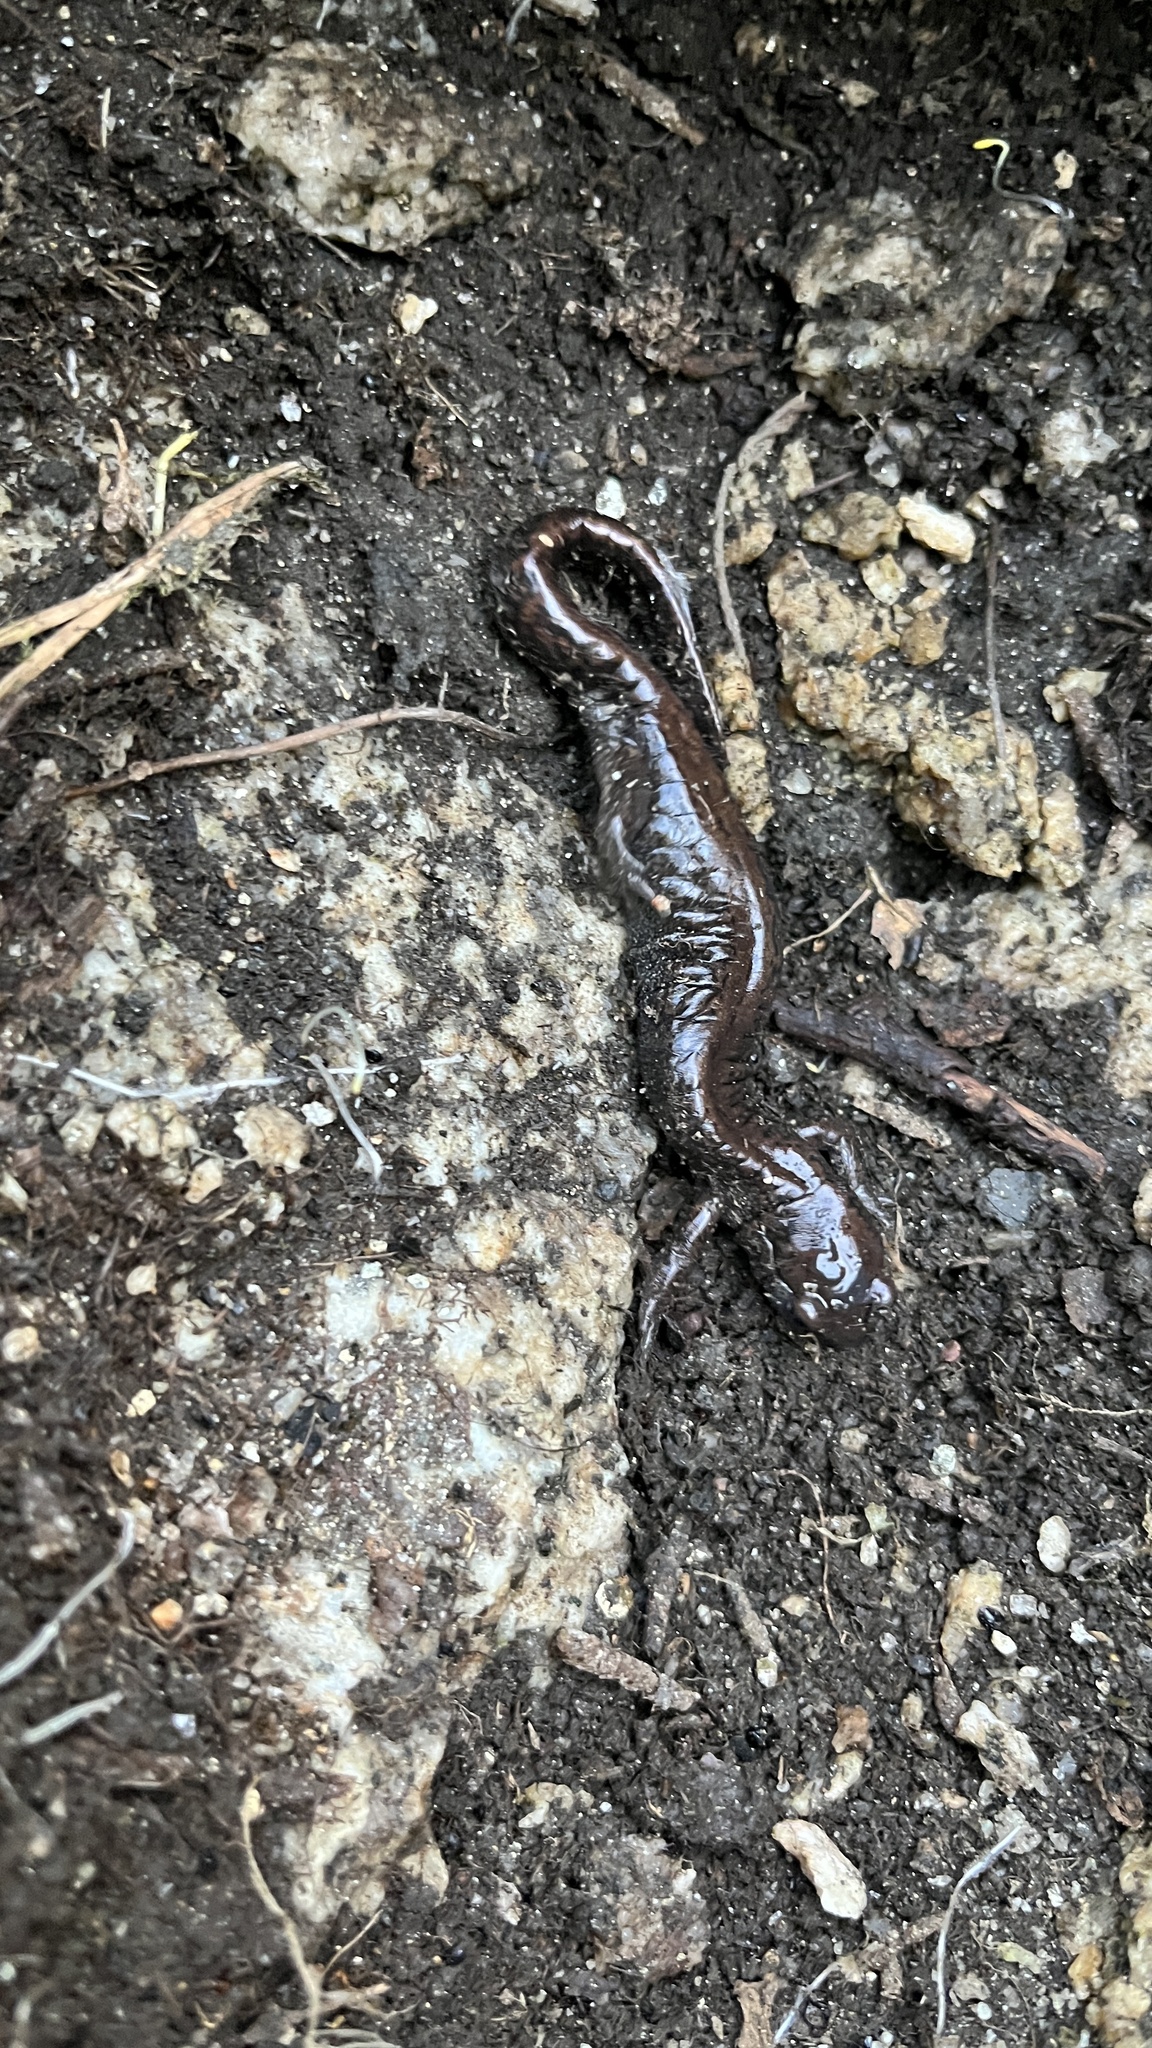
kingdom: Animalia
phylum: Chordata
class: Amphibia
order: Caudata
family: Hynobiidae
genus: Salamandrella
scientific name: Salamandrella keyserlingii
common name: Dybowski's salamander
